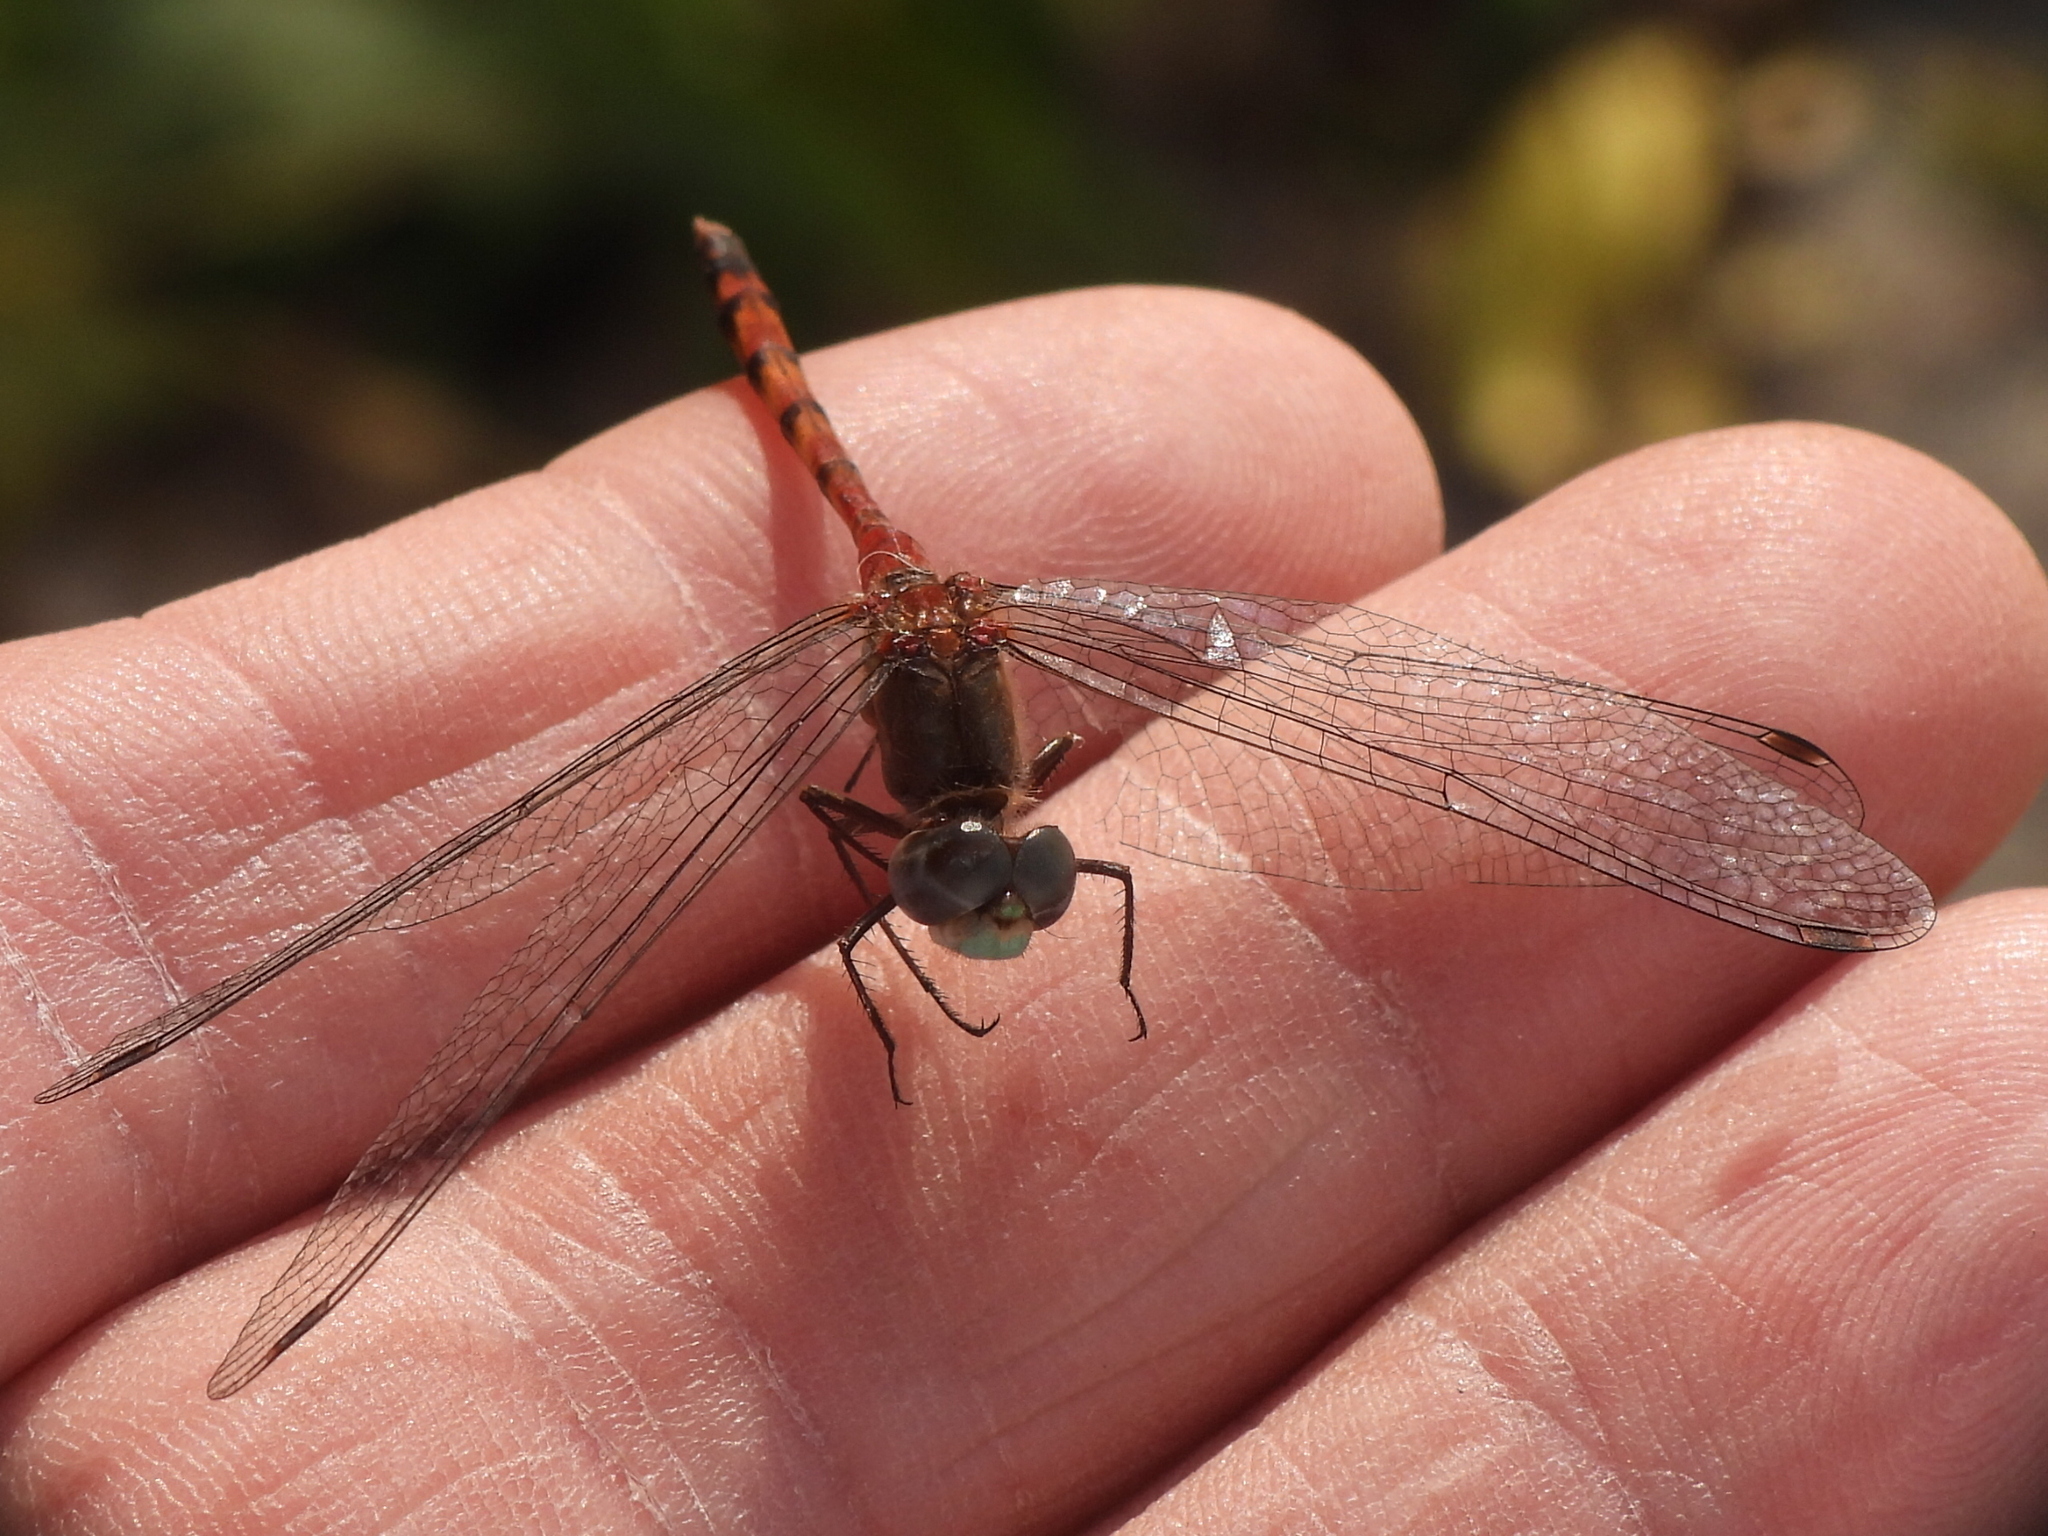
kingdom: Animalia
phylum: Arthropoda
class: Insecta
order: Odonata
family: Libellulidae
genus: Sympetrum
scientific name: Sympetrum ambiguum
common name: Blue-faced meadowhawk
